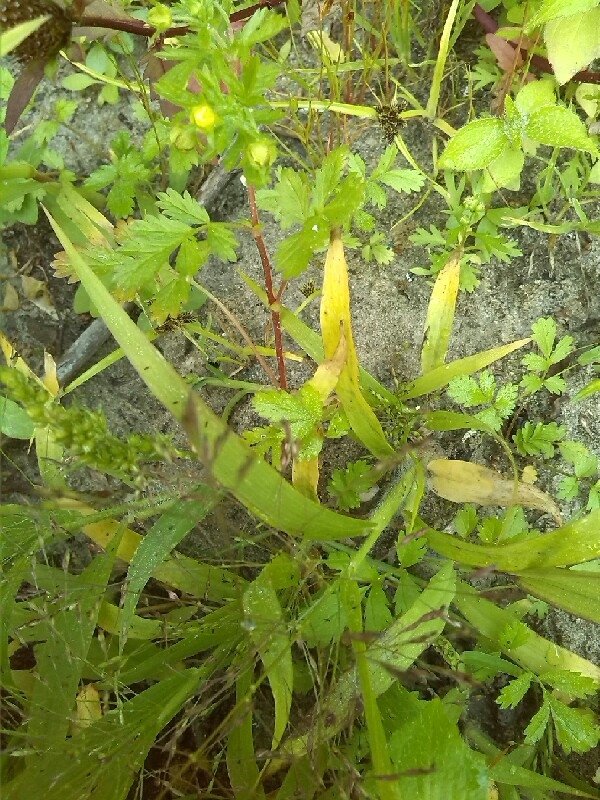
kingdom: Plantae
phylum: Tracheophyta
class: Liliopsida
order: Poales
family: Poaceae
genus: Panicum
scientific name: Panicum capillare
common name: Witch-grass
